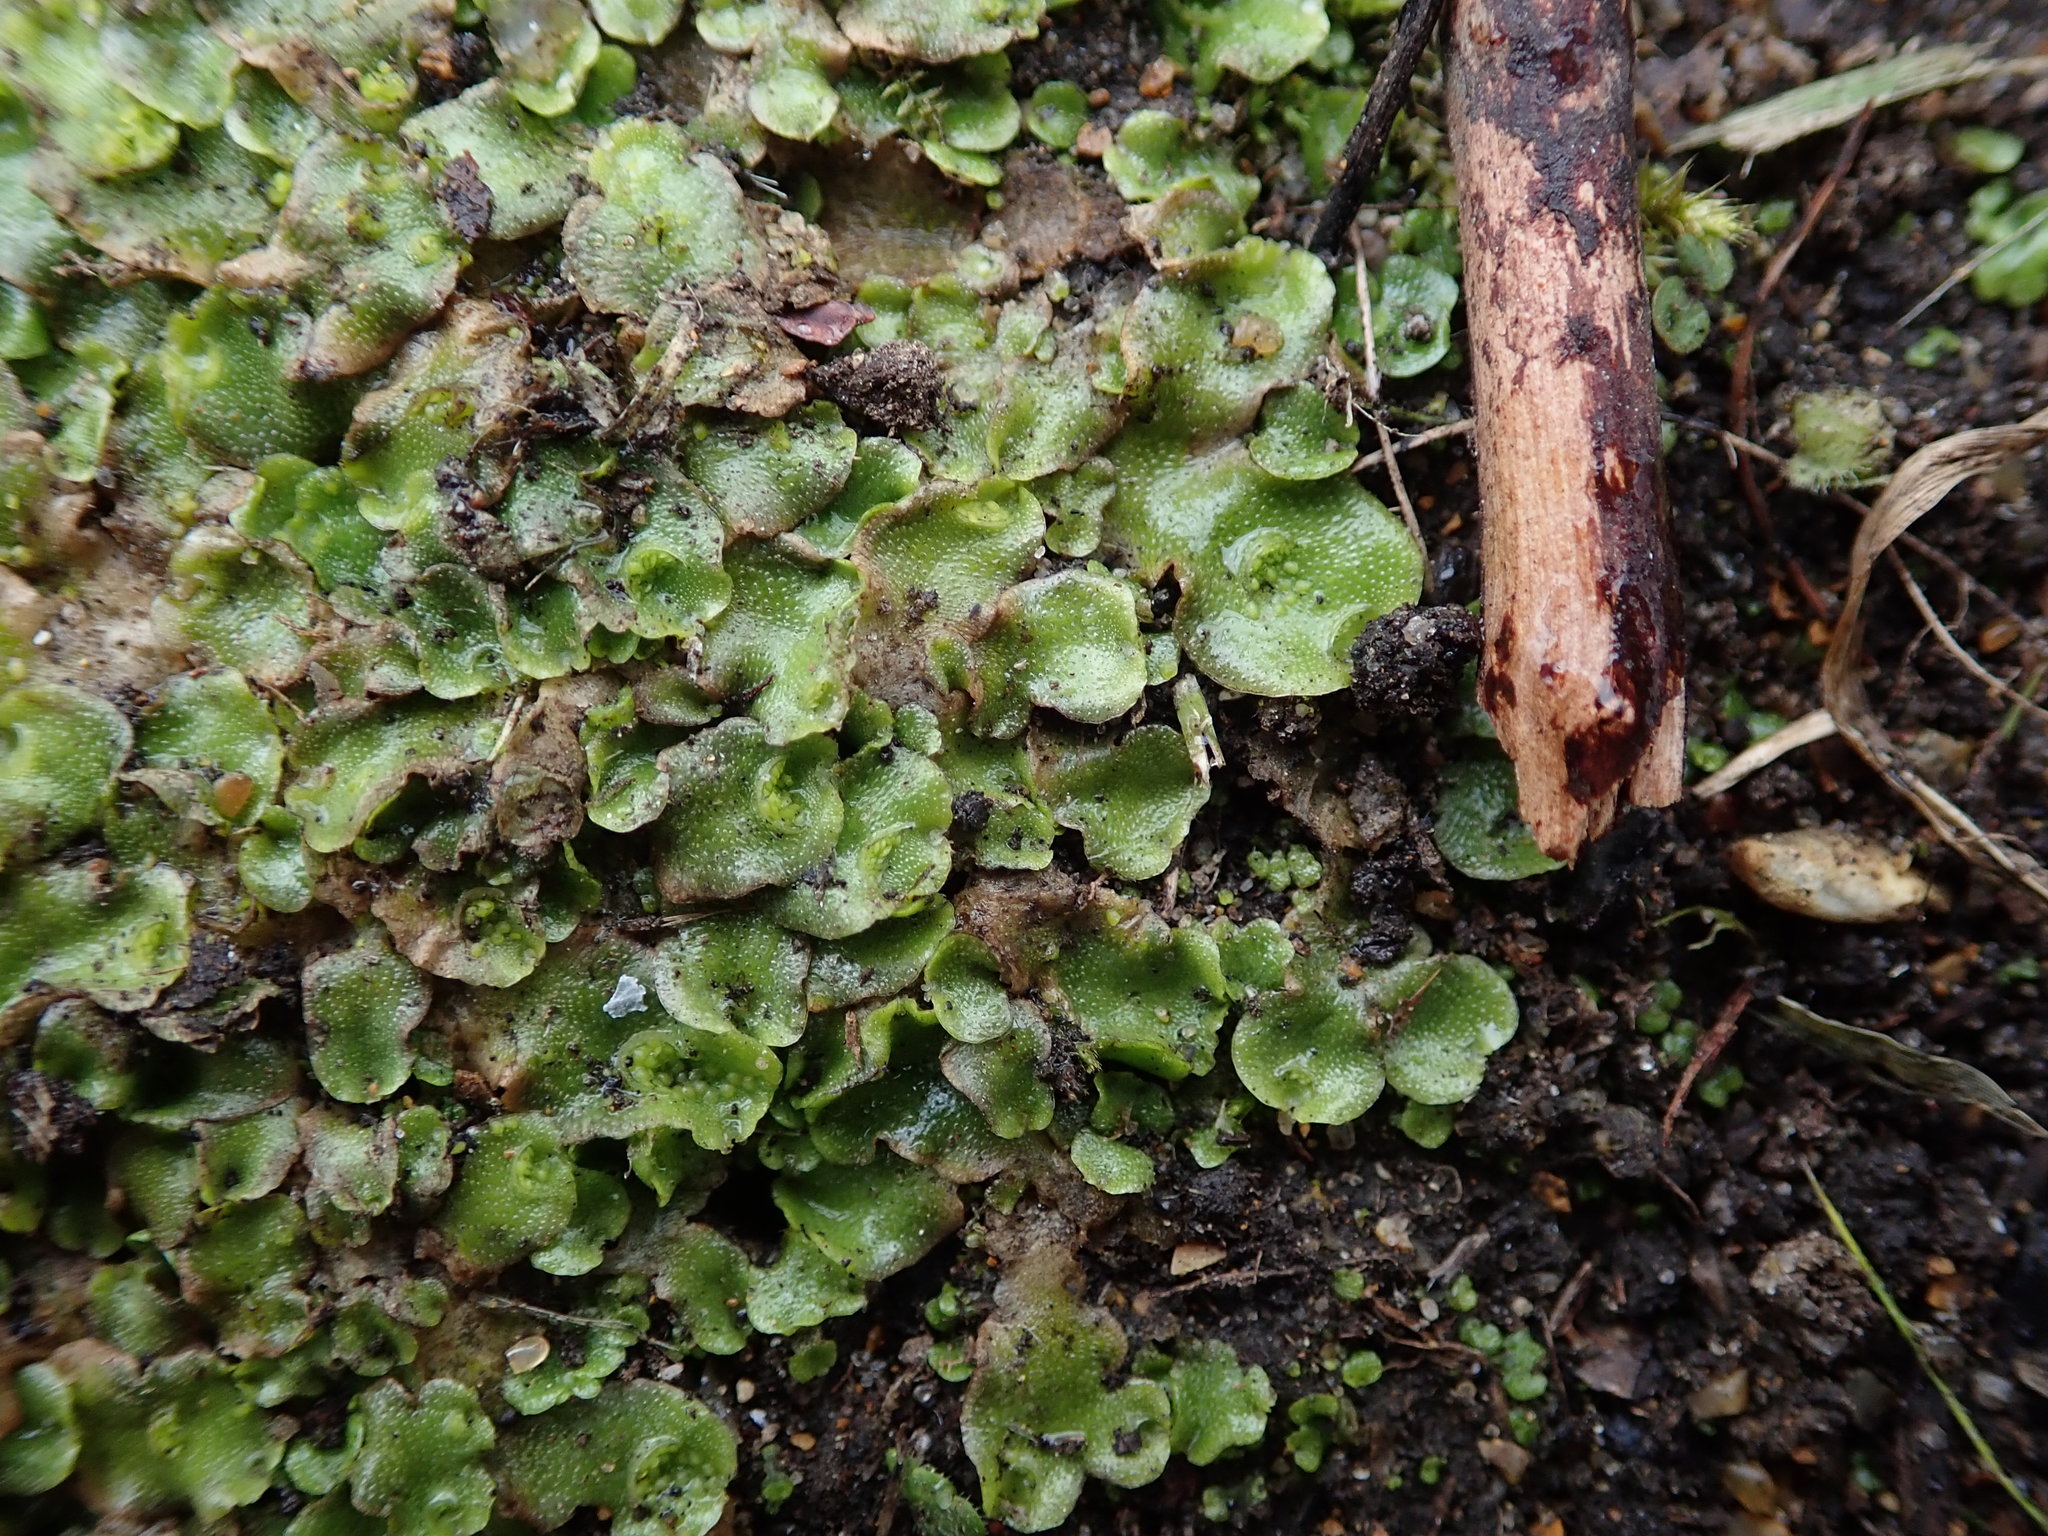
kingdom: Plantae
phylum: Marchantiophyta
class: Marchantiopsida
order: Lunulariales
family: Lunulariaceae
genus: Lunularia
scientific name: Lunularia cruciata
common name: Crescent-cup liverwort
